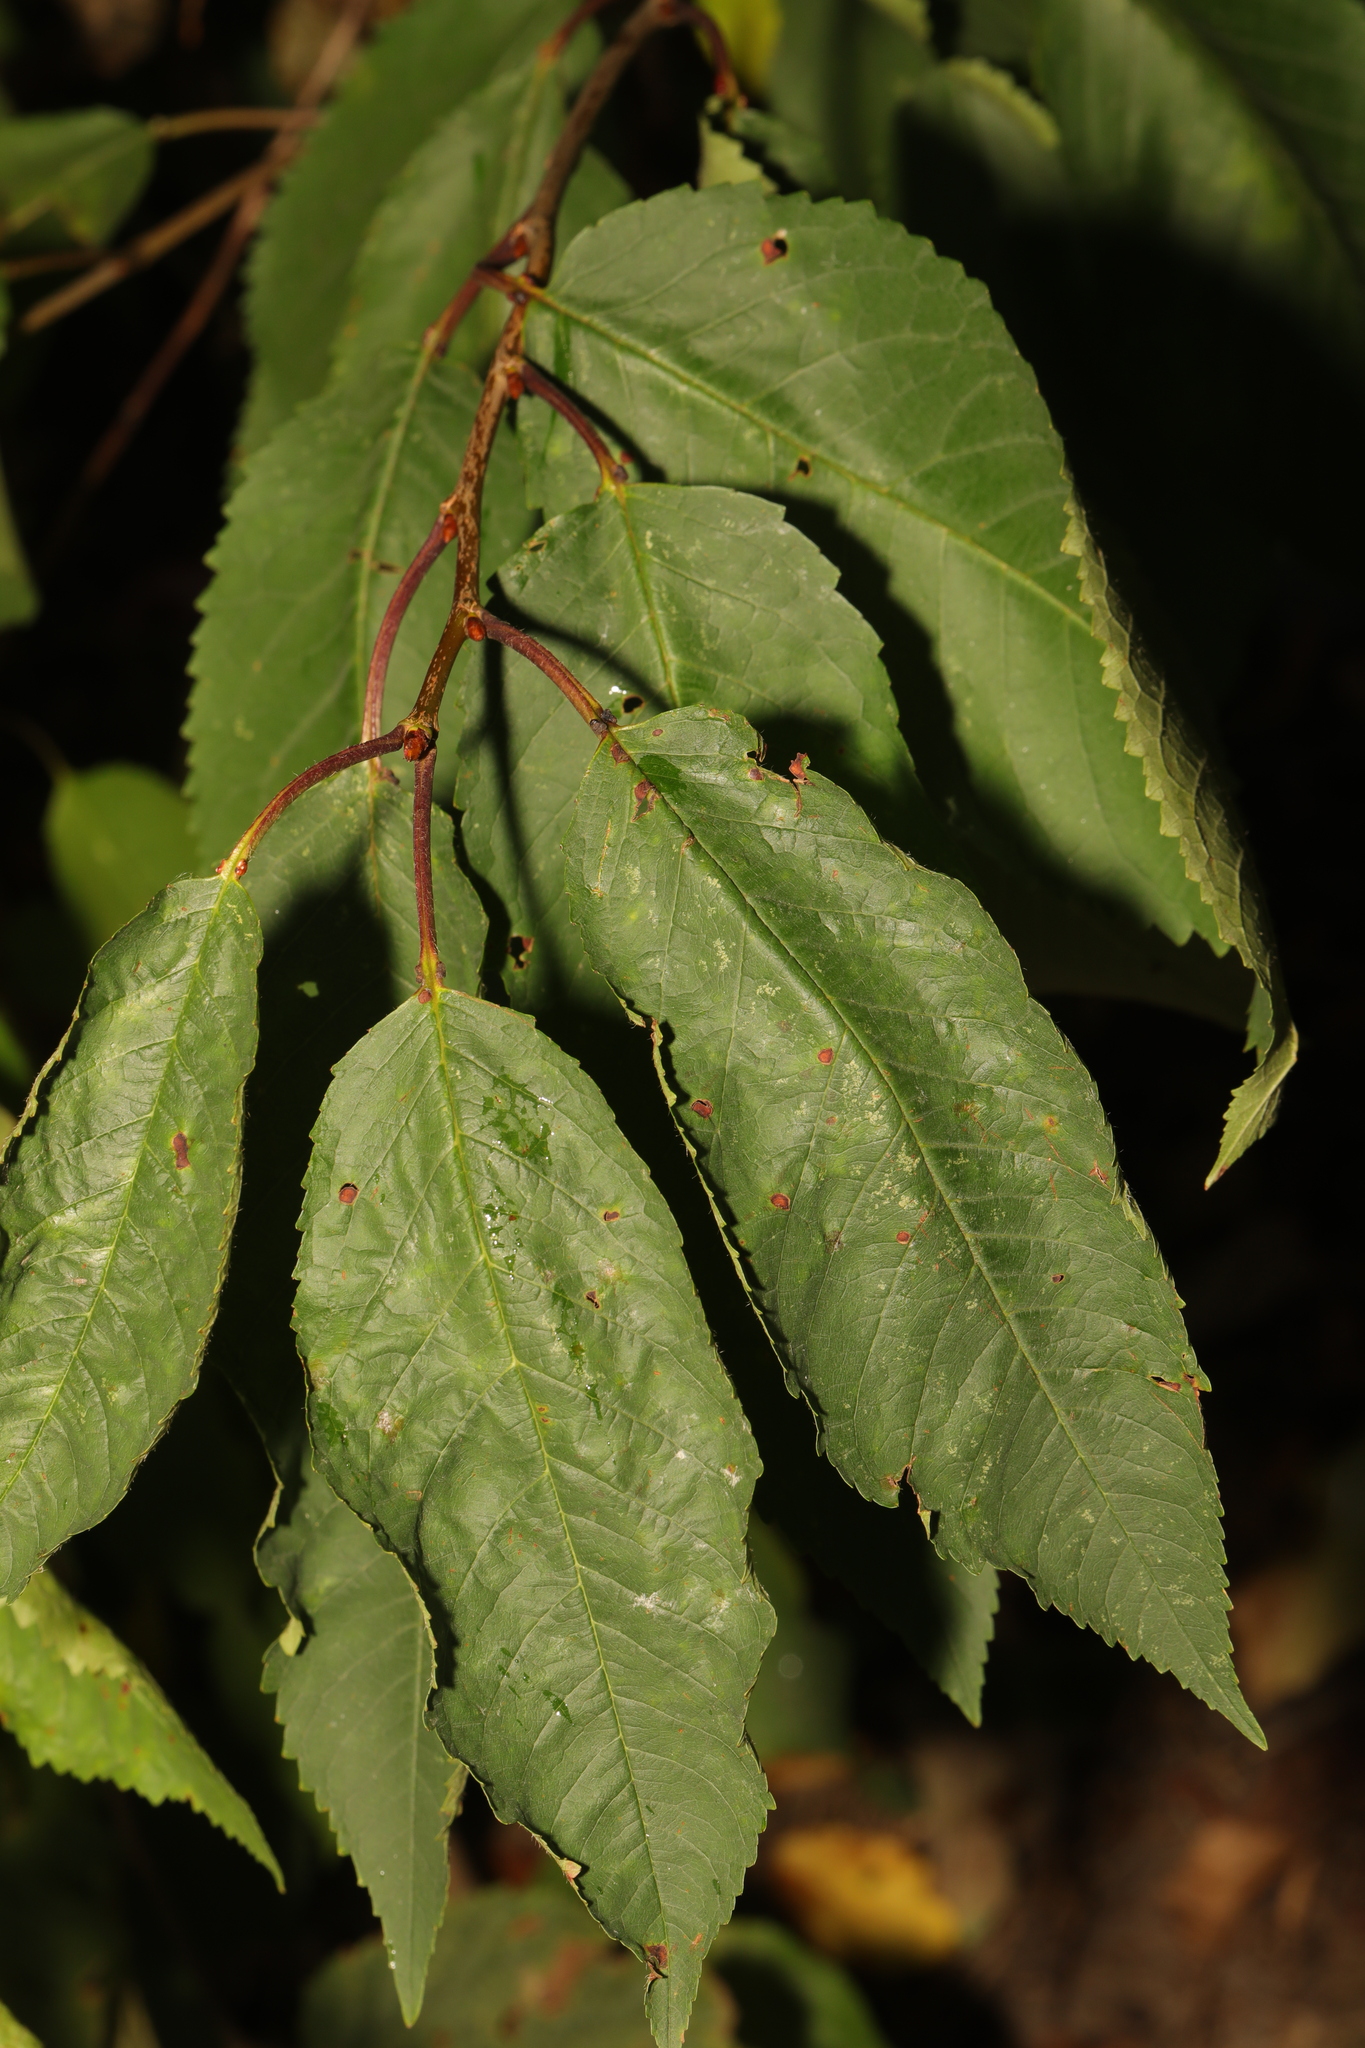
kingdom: Plantae
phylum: Tracheophyta
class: Magnoliopsida
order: Rosales
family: Rosaceae
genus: Prunus
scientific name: Prunus avium
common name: Sweet cherry
